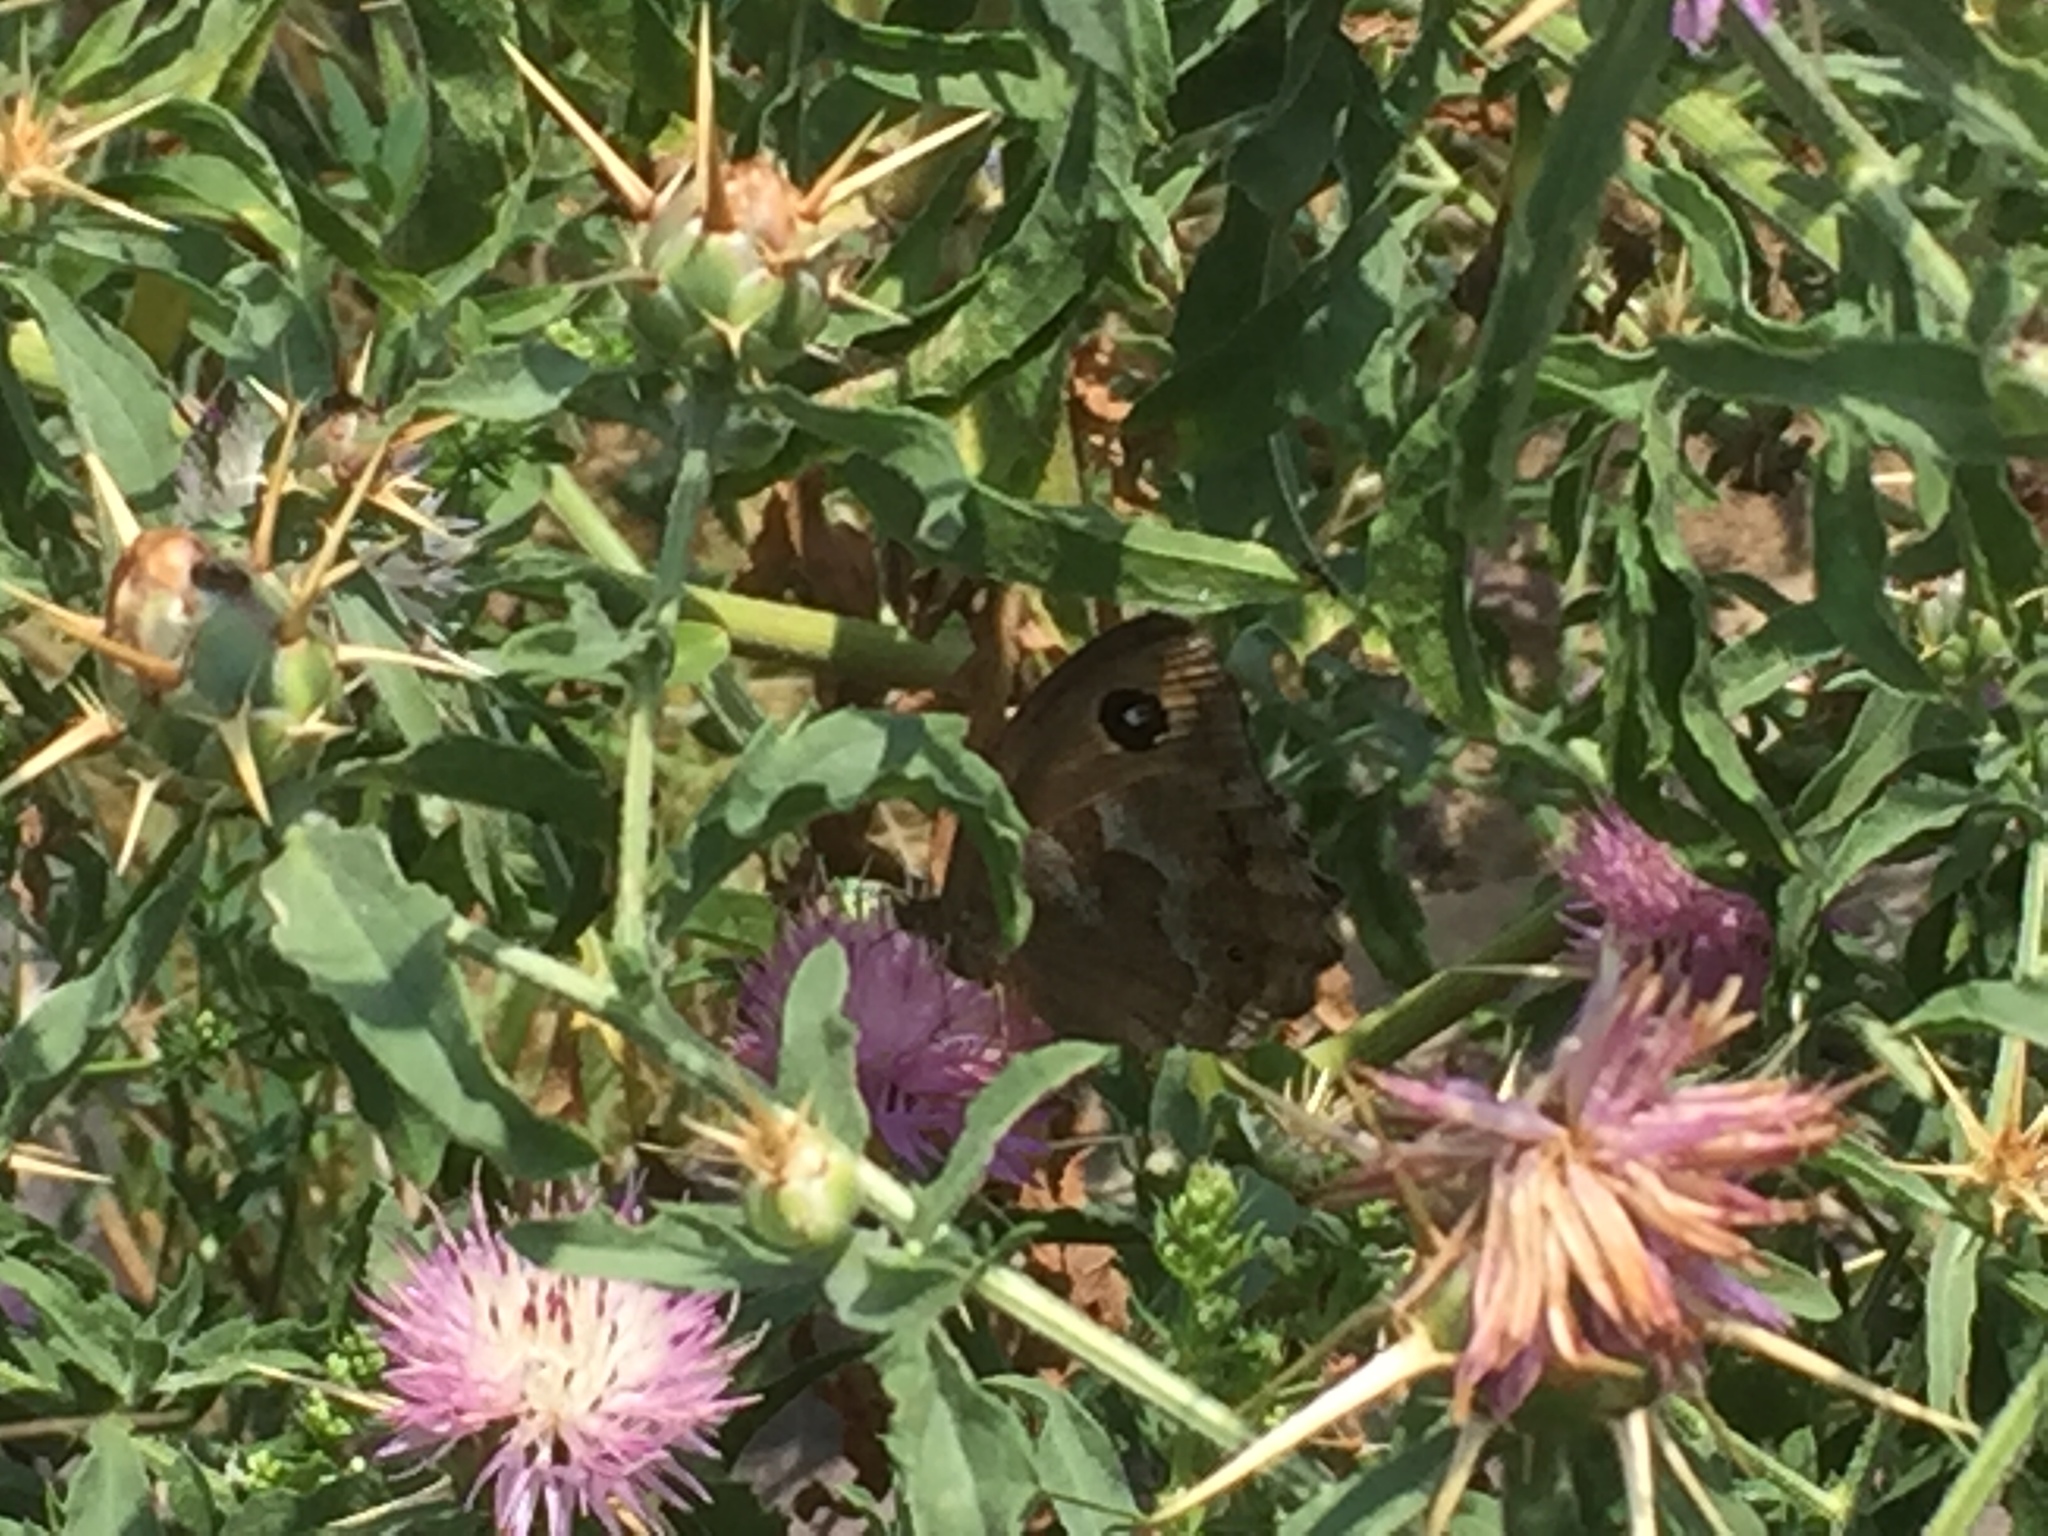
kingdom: Plantae
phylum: Tracheophyta
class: Magnoliopsida
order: Asterales
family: Asteraceae
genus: Centaurea
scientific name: Centaurea iberica
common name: Iberian knapweed
